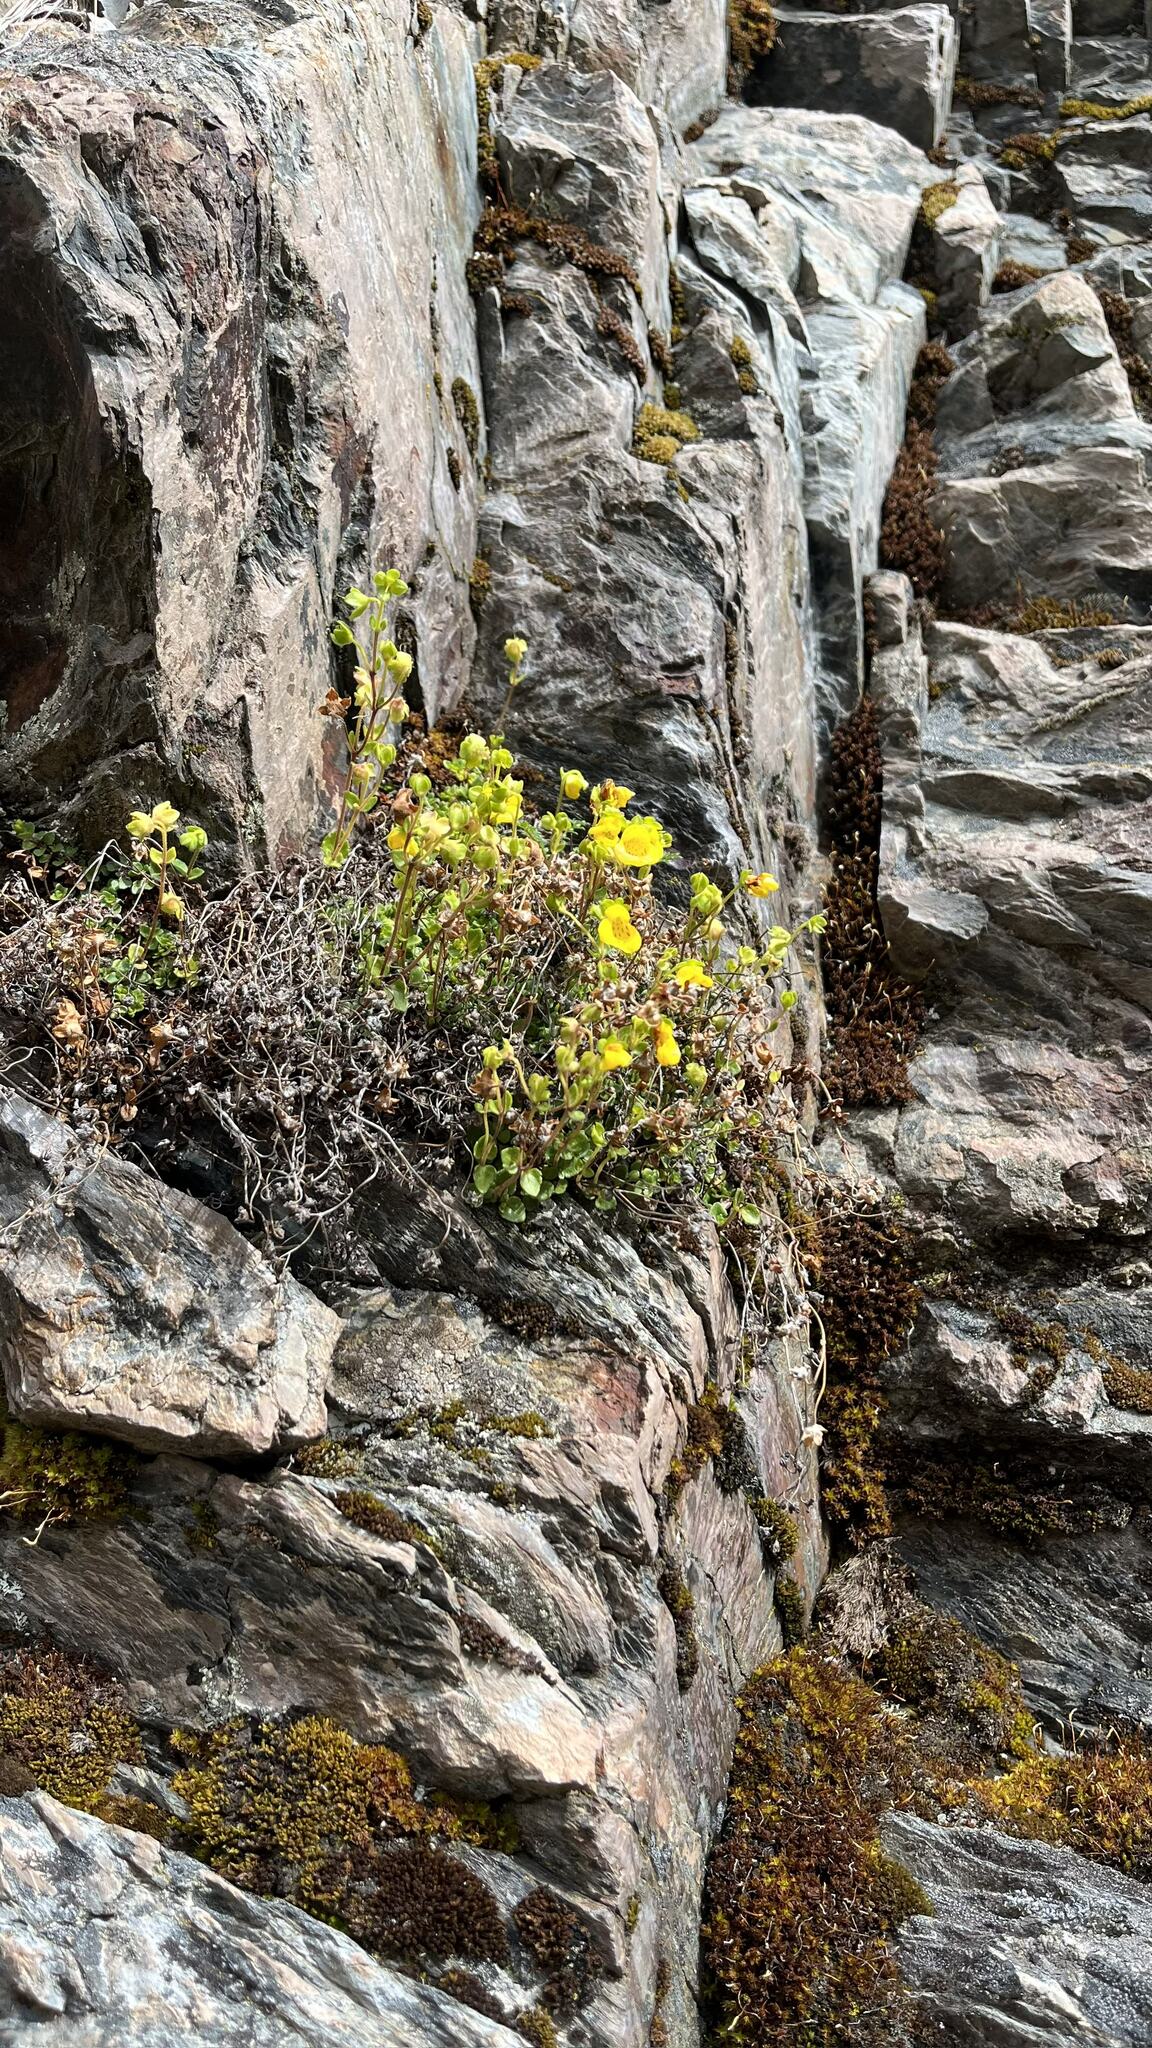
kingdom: Plantae
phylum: Tracheophyta
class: Magnoliopsida
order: Lamiales
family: Calceolariaceae
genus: Calceolaria
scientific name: Calceolaria tenella
